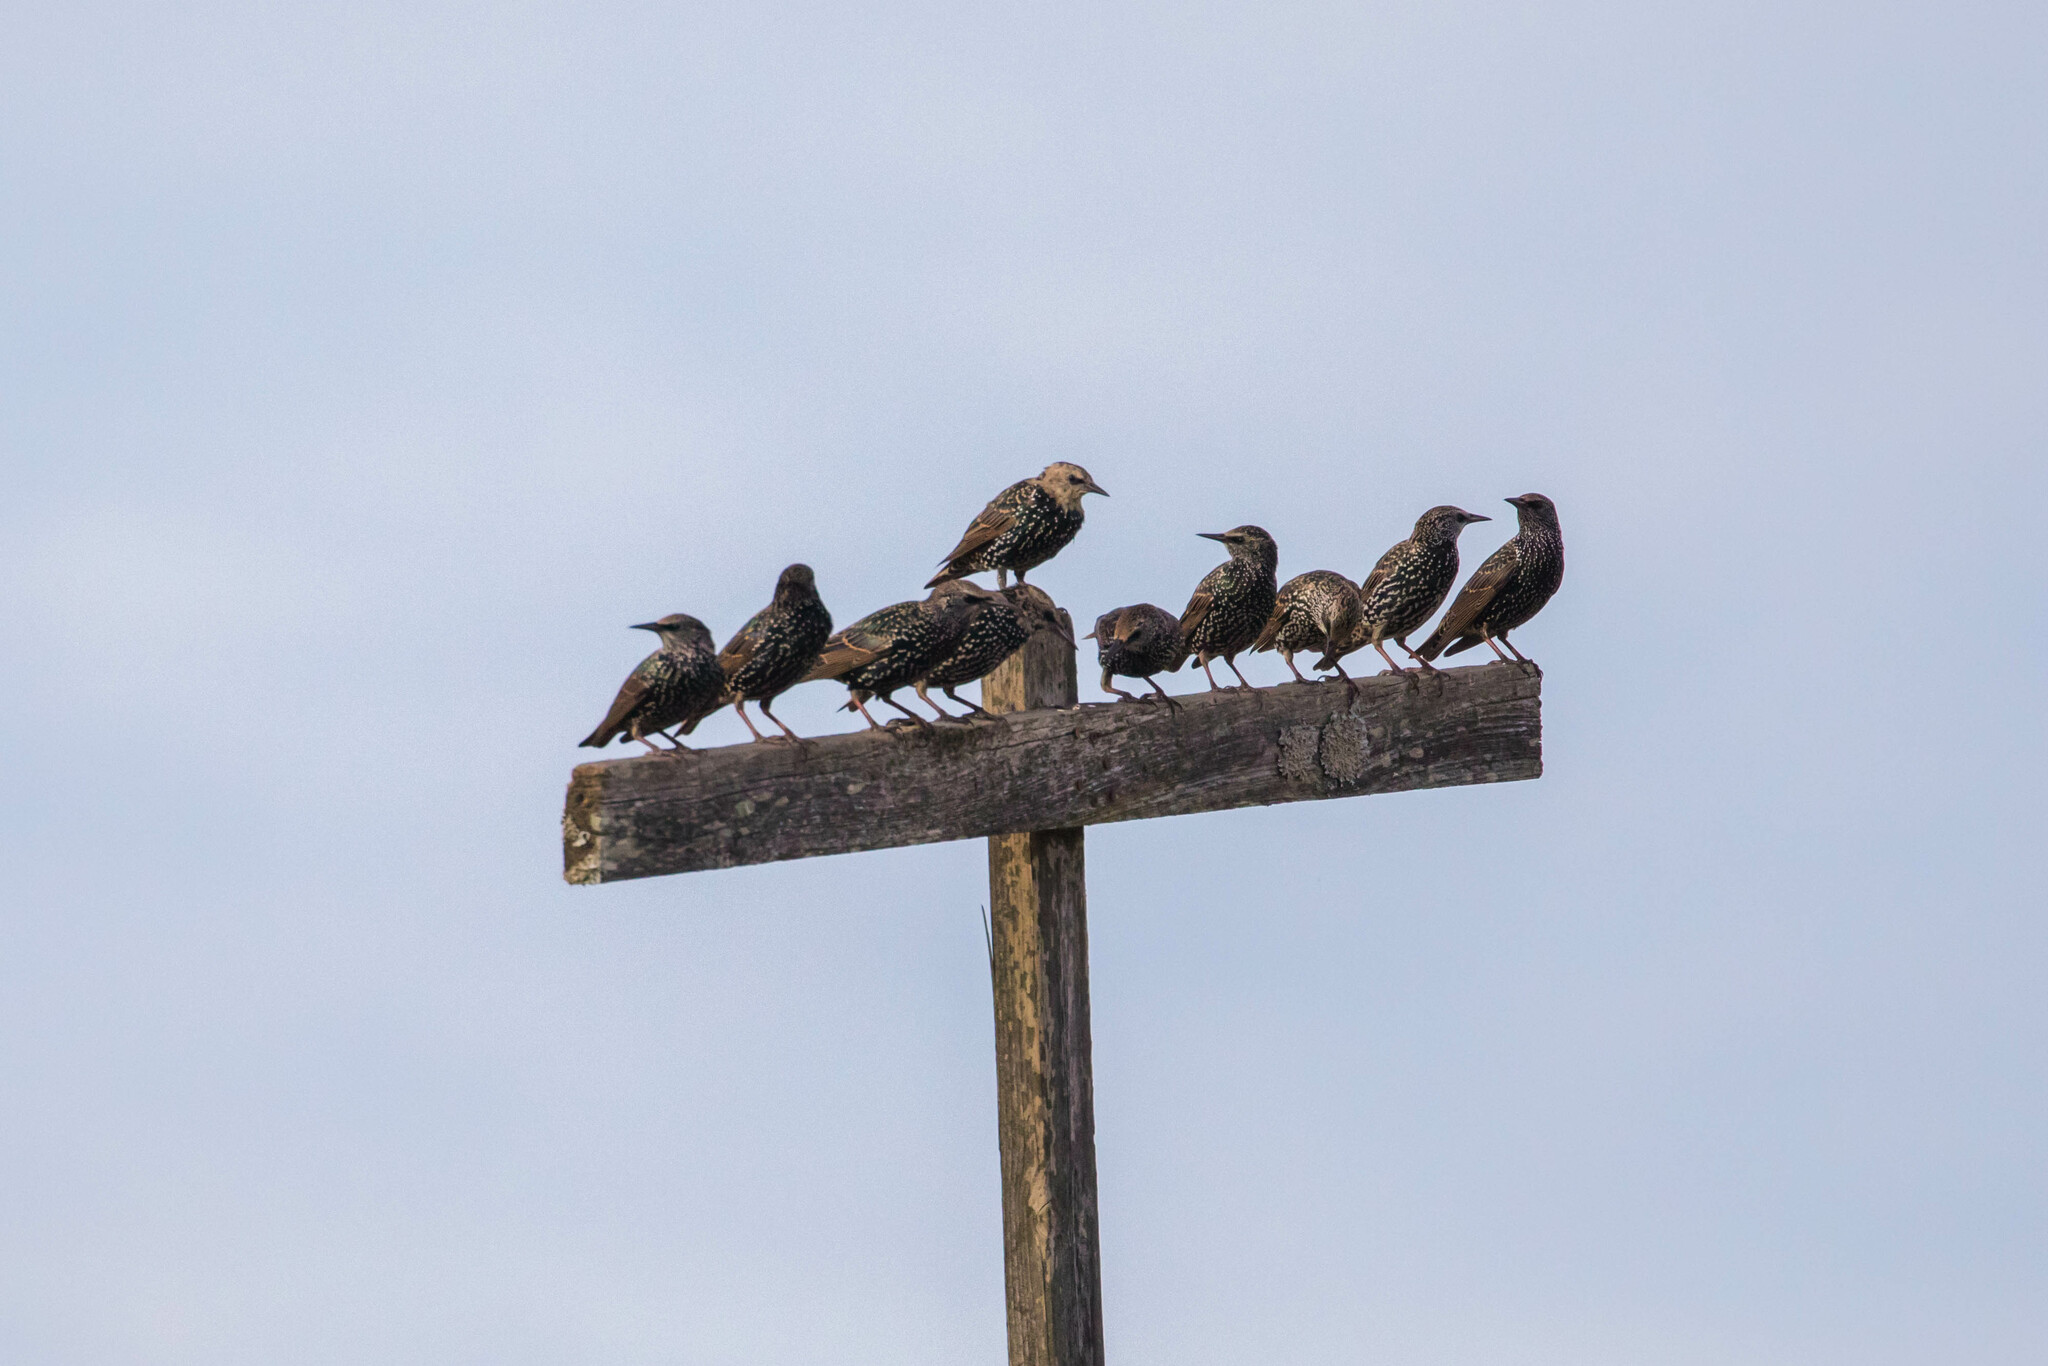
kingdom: Animalia
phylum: Chordata
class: Aves
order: Passeriformes
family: Sturnidae
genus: Sturnus
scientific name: Sturnus vulgaris
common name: Common starling
